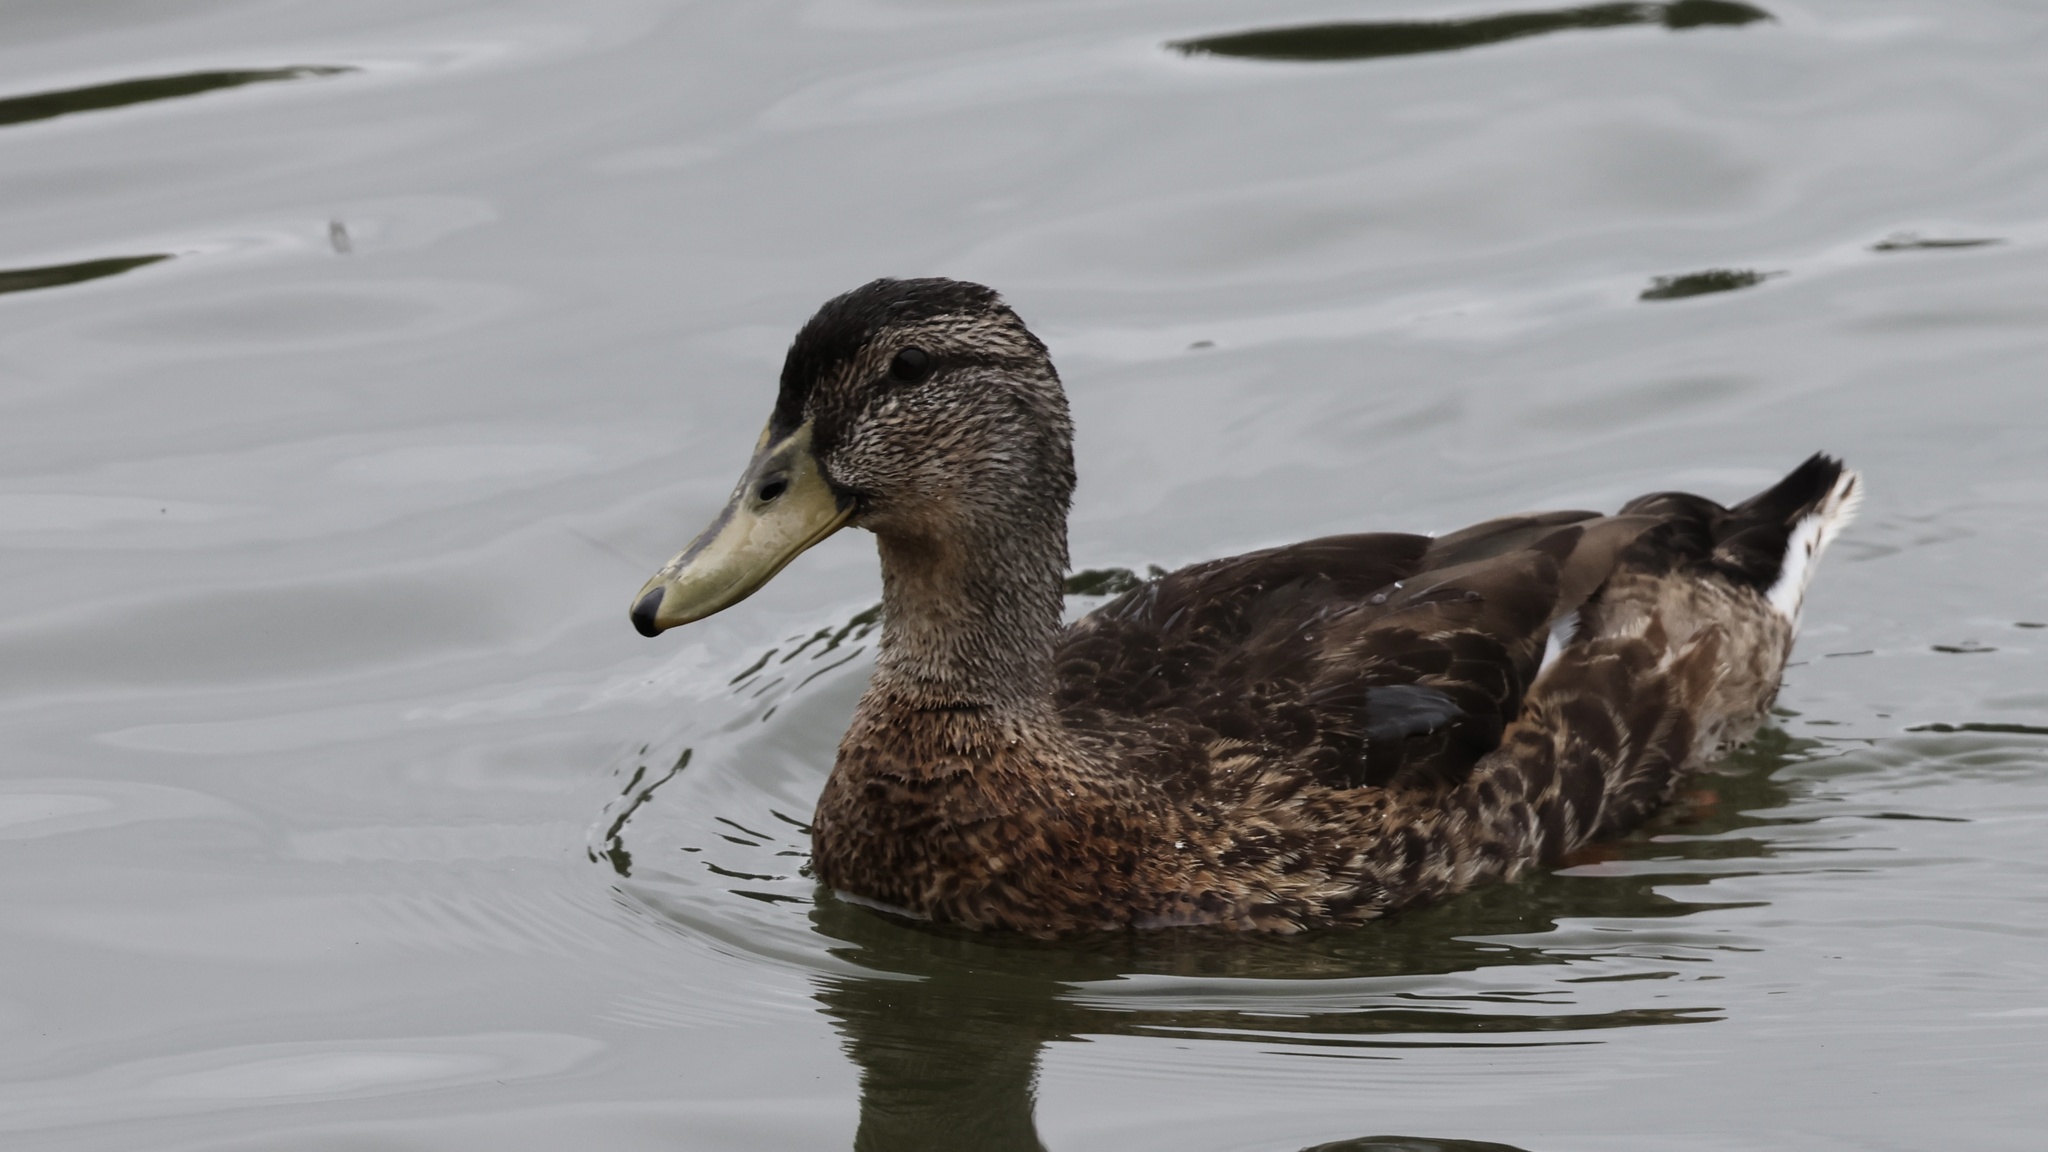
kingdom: Animalia
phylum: Chordata
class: Aves
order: Anseriformes
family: Anatidae
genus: Anas
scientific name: Anas platyrhynchos
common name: Mallard
